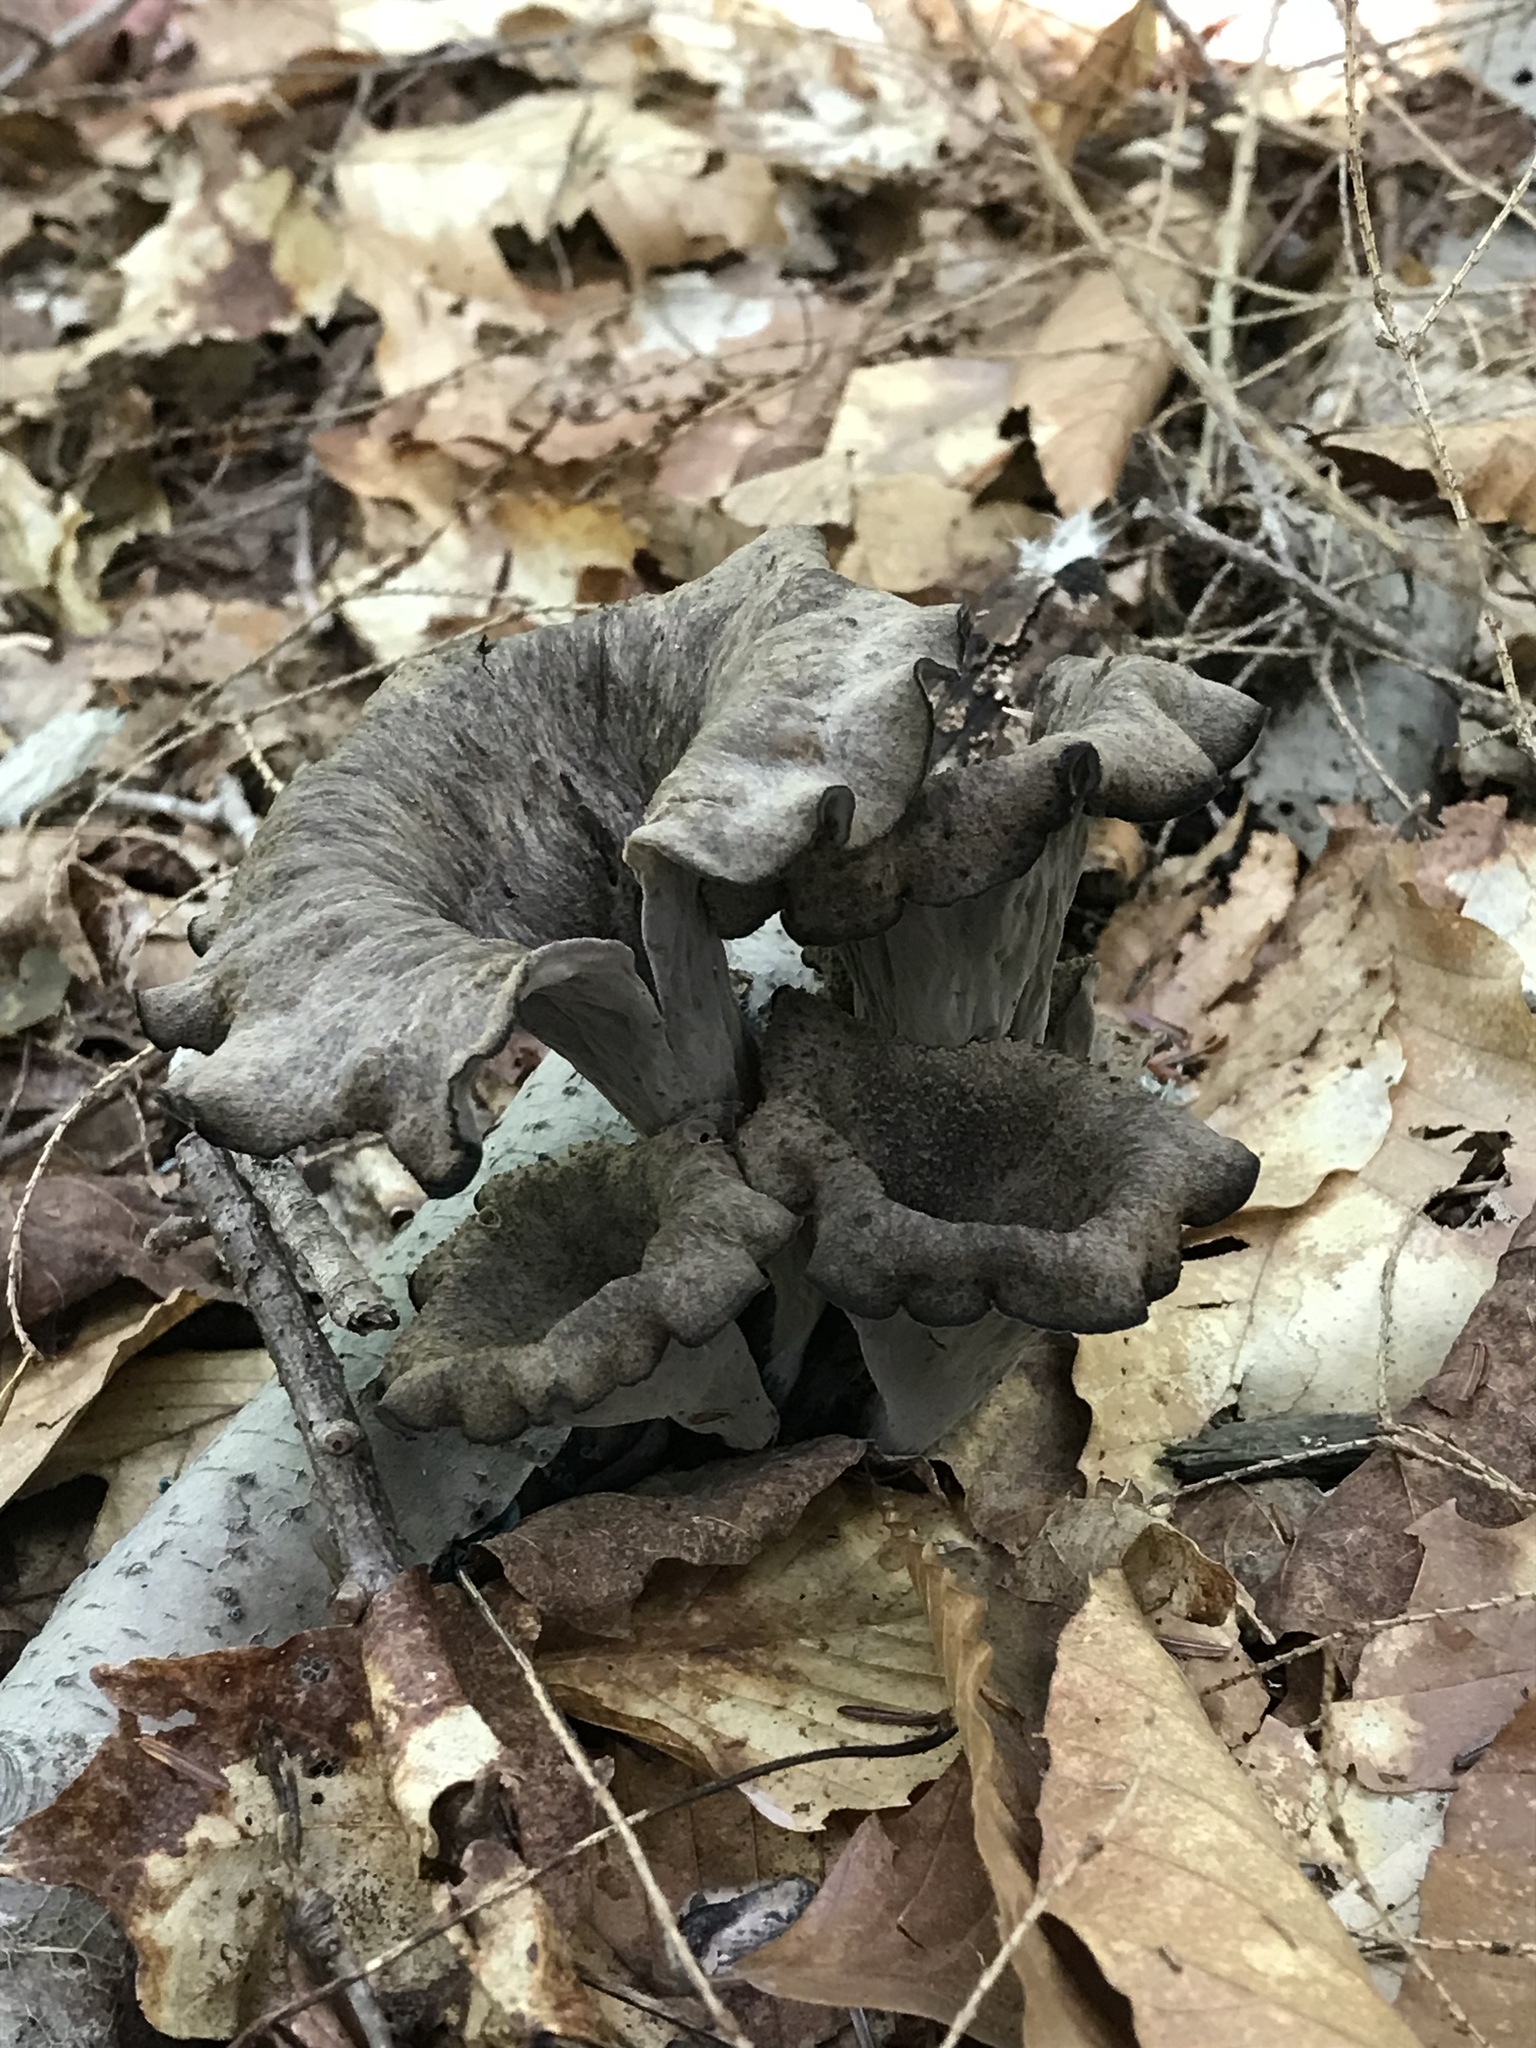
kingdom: Fungi
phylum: Basidiomycota
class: Agaricomycetes
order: Cantharellales
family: Hydnaceae
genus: Craterellus
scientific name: Craterellus cornucopioides
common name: Horn of plenty
